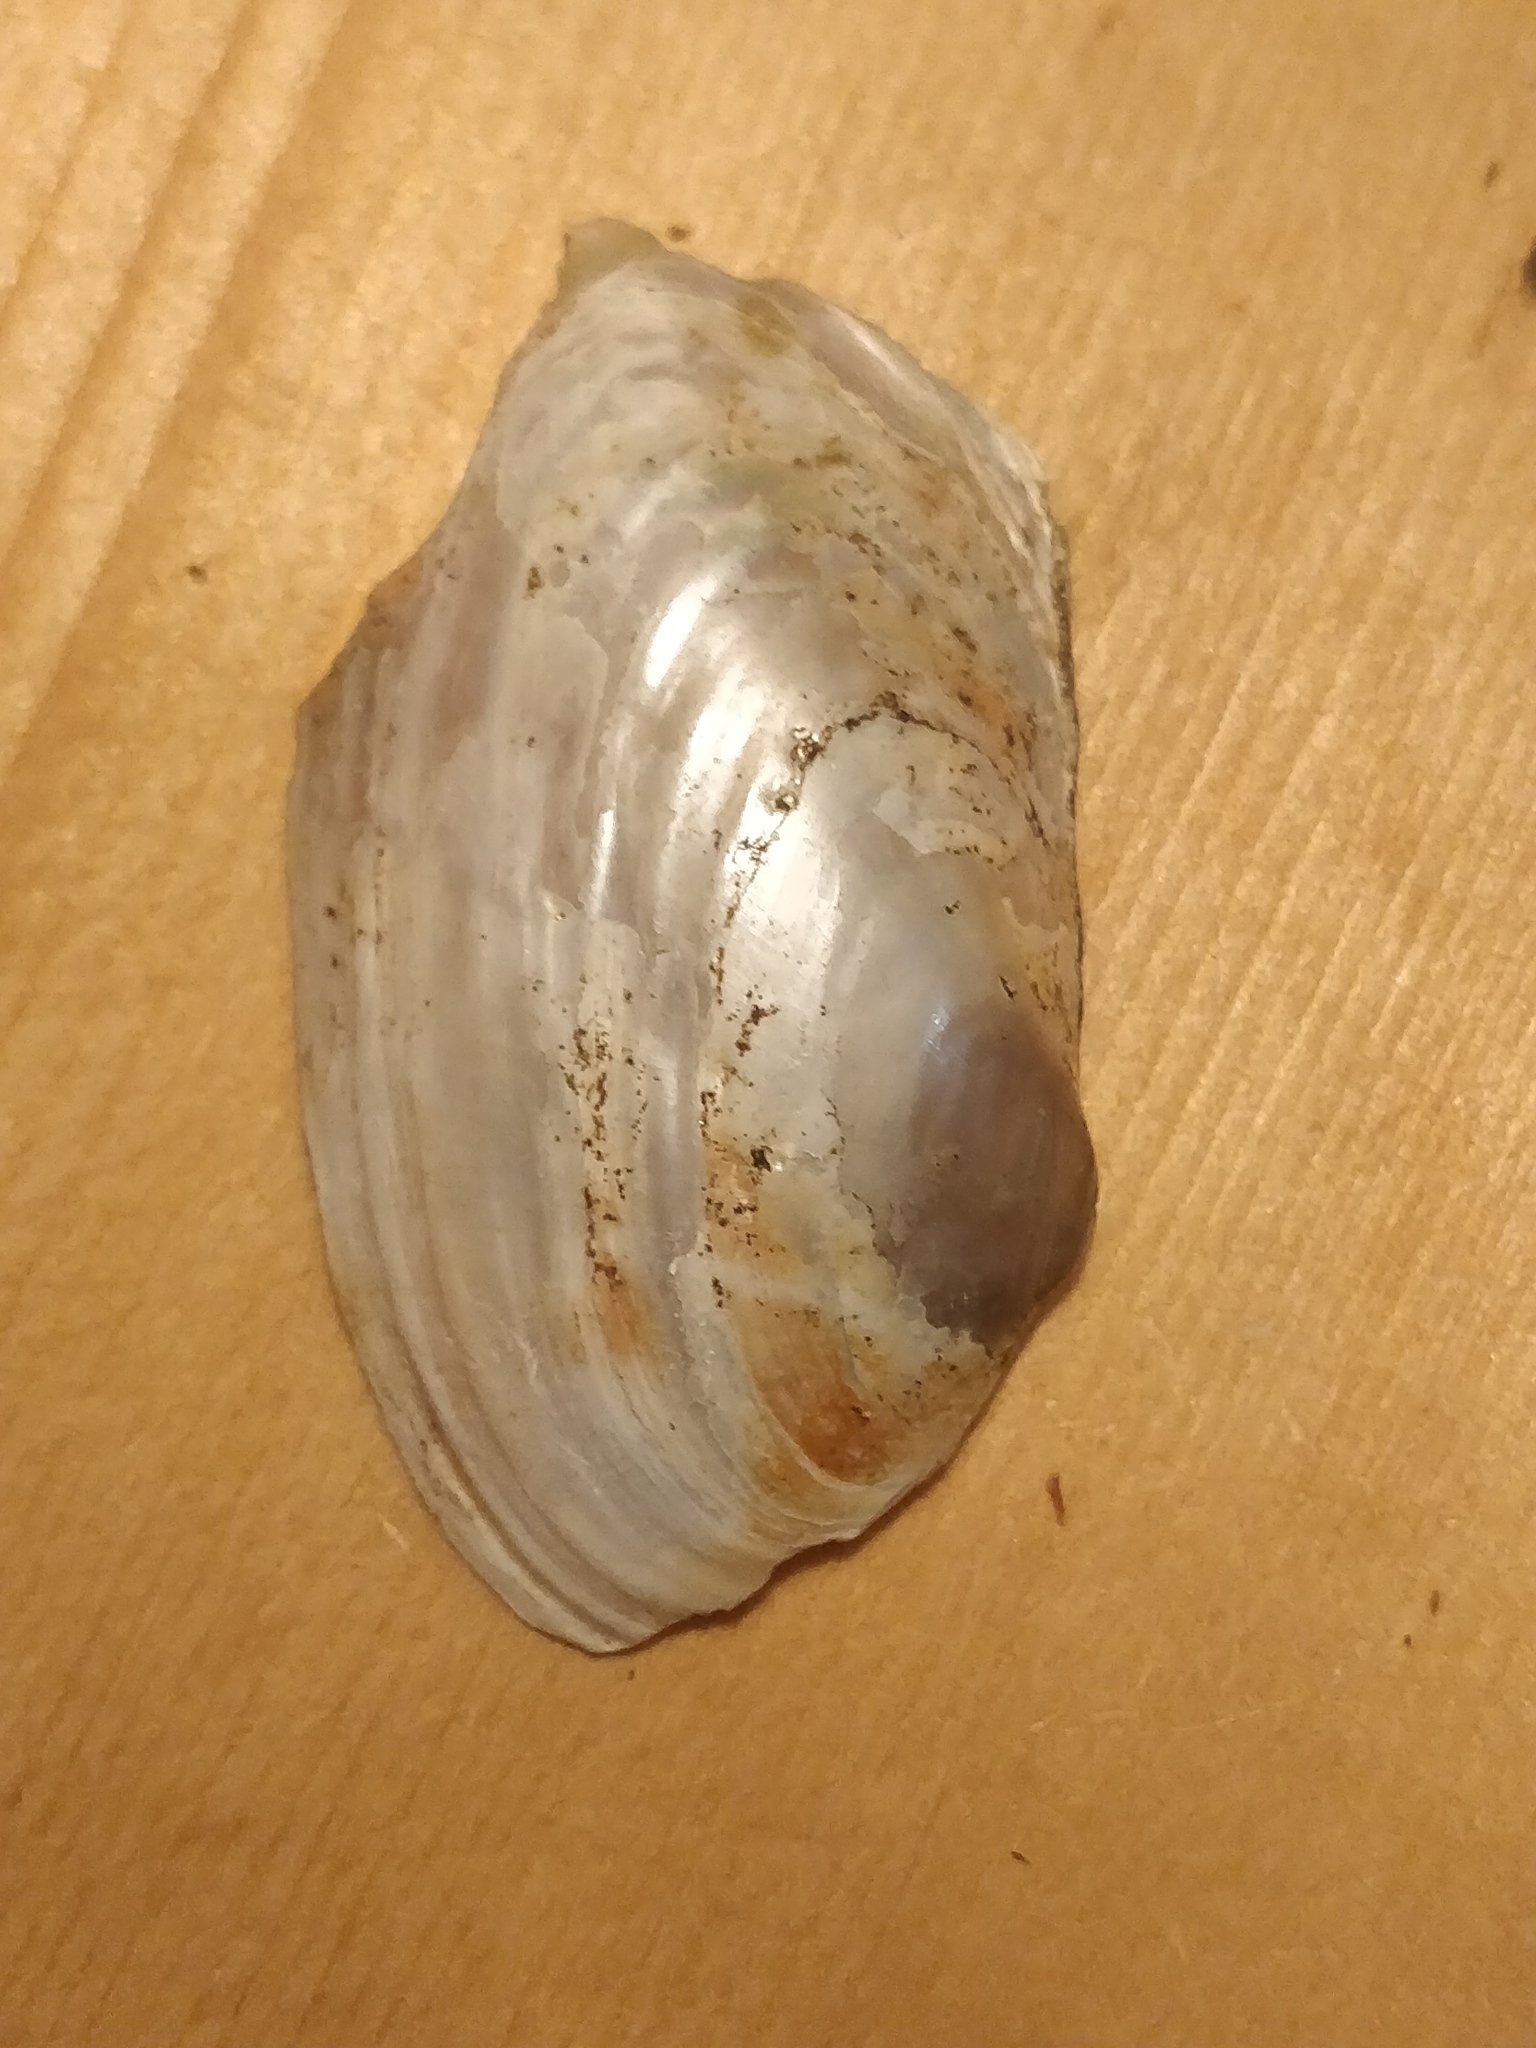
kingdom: Animalia
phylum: Mollusca
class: Bivalvia
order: Unionida
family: Unionidae
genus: Anodontoides
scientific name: Anodontoides ferussacianus
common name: Cylindrical papershell
